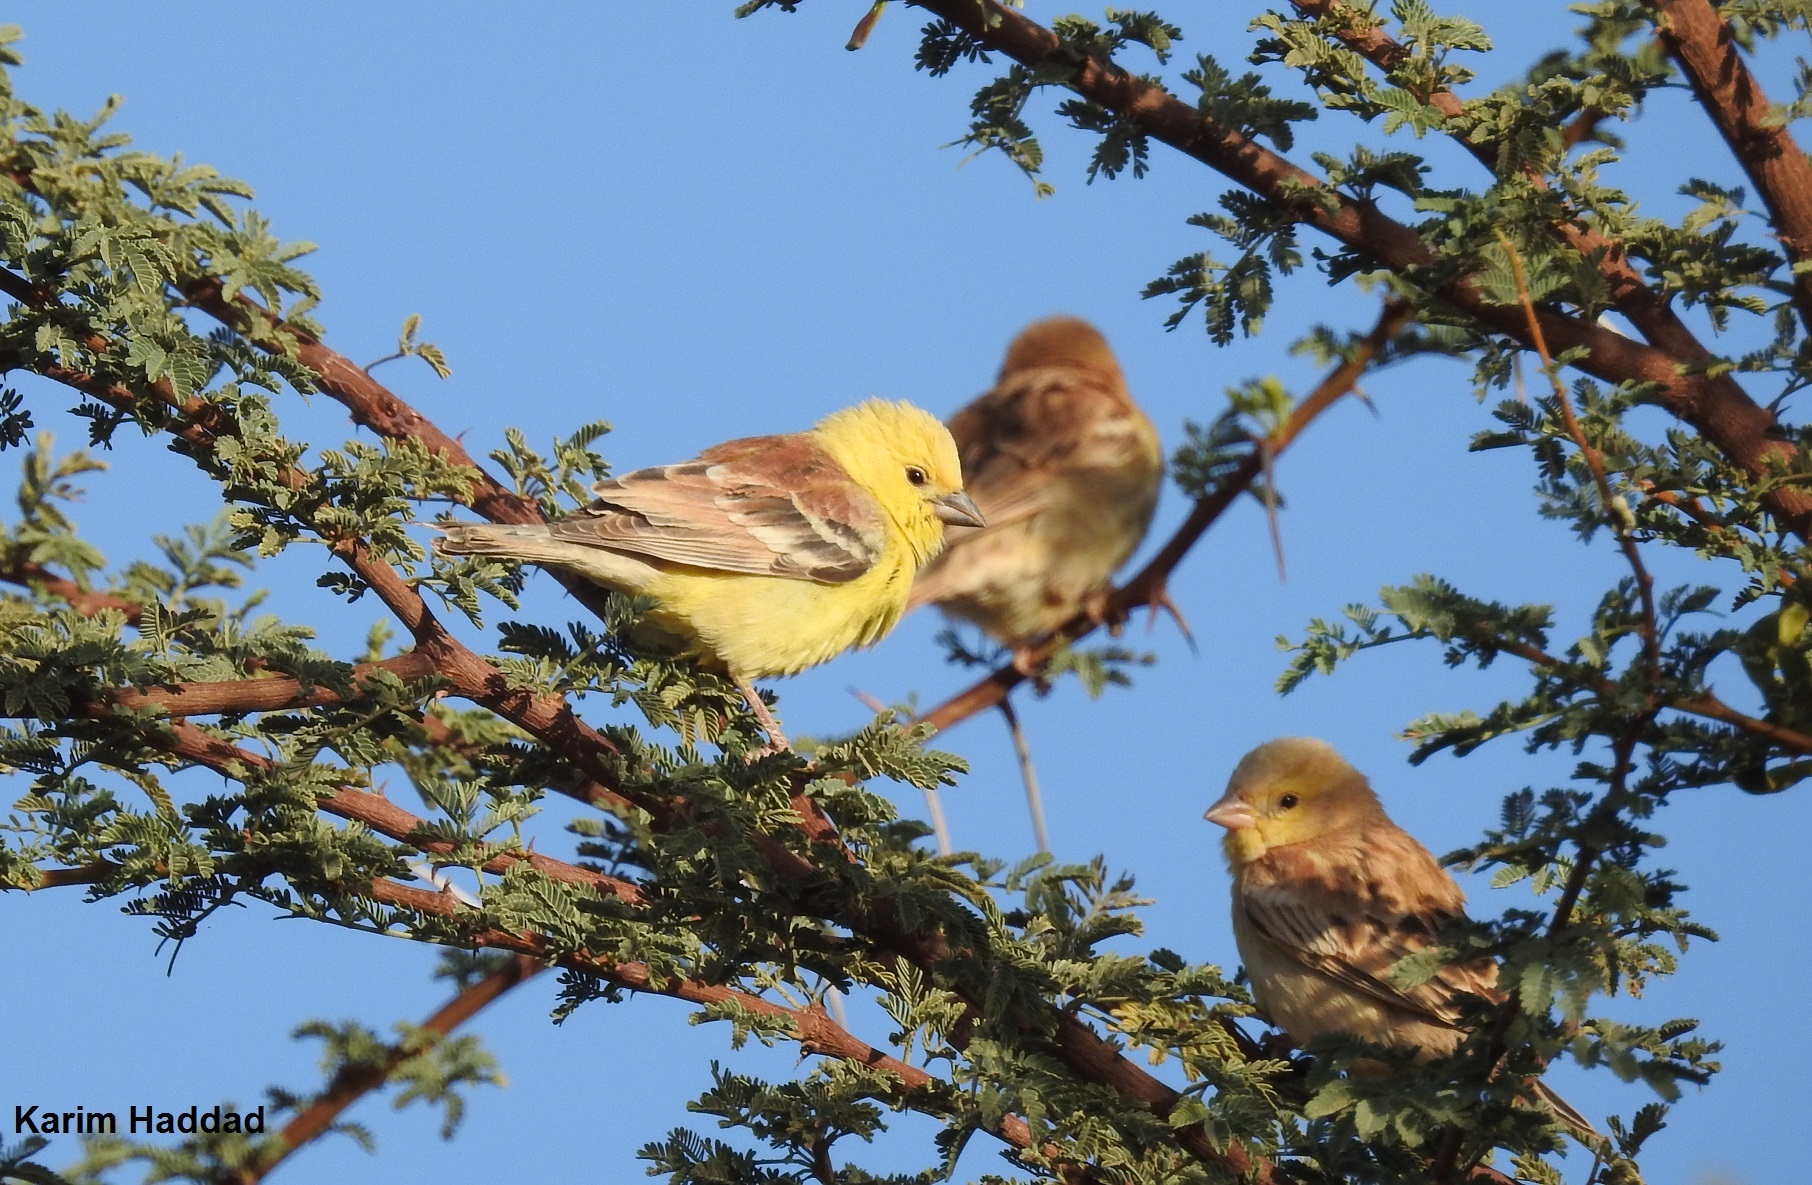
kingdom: Animalia
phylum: Chordata
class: Aves
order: Passeriformes
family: Passeridae
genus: Passer
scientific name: Passer luteus
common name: Sudan golden sparrow
